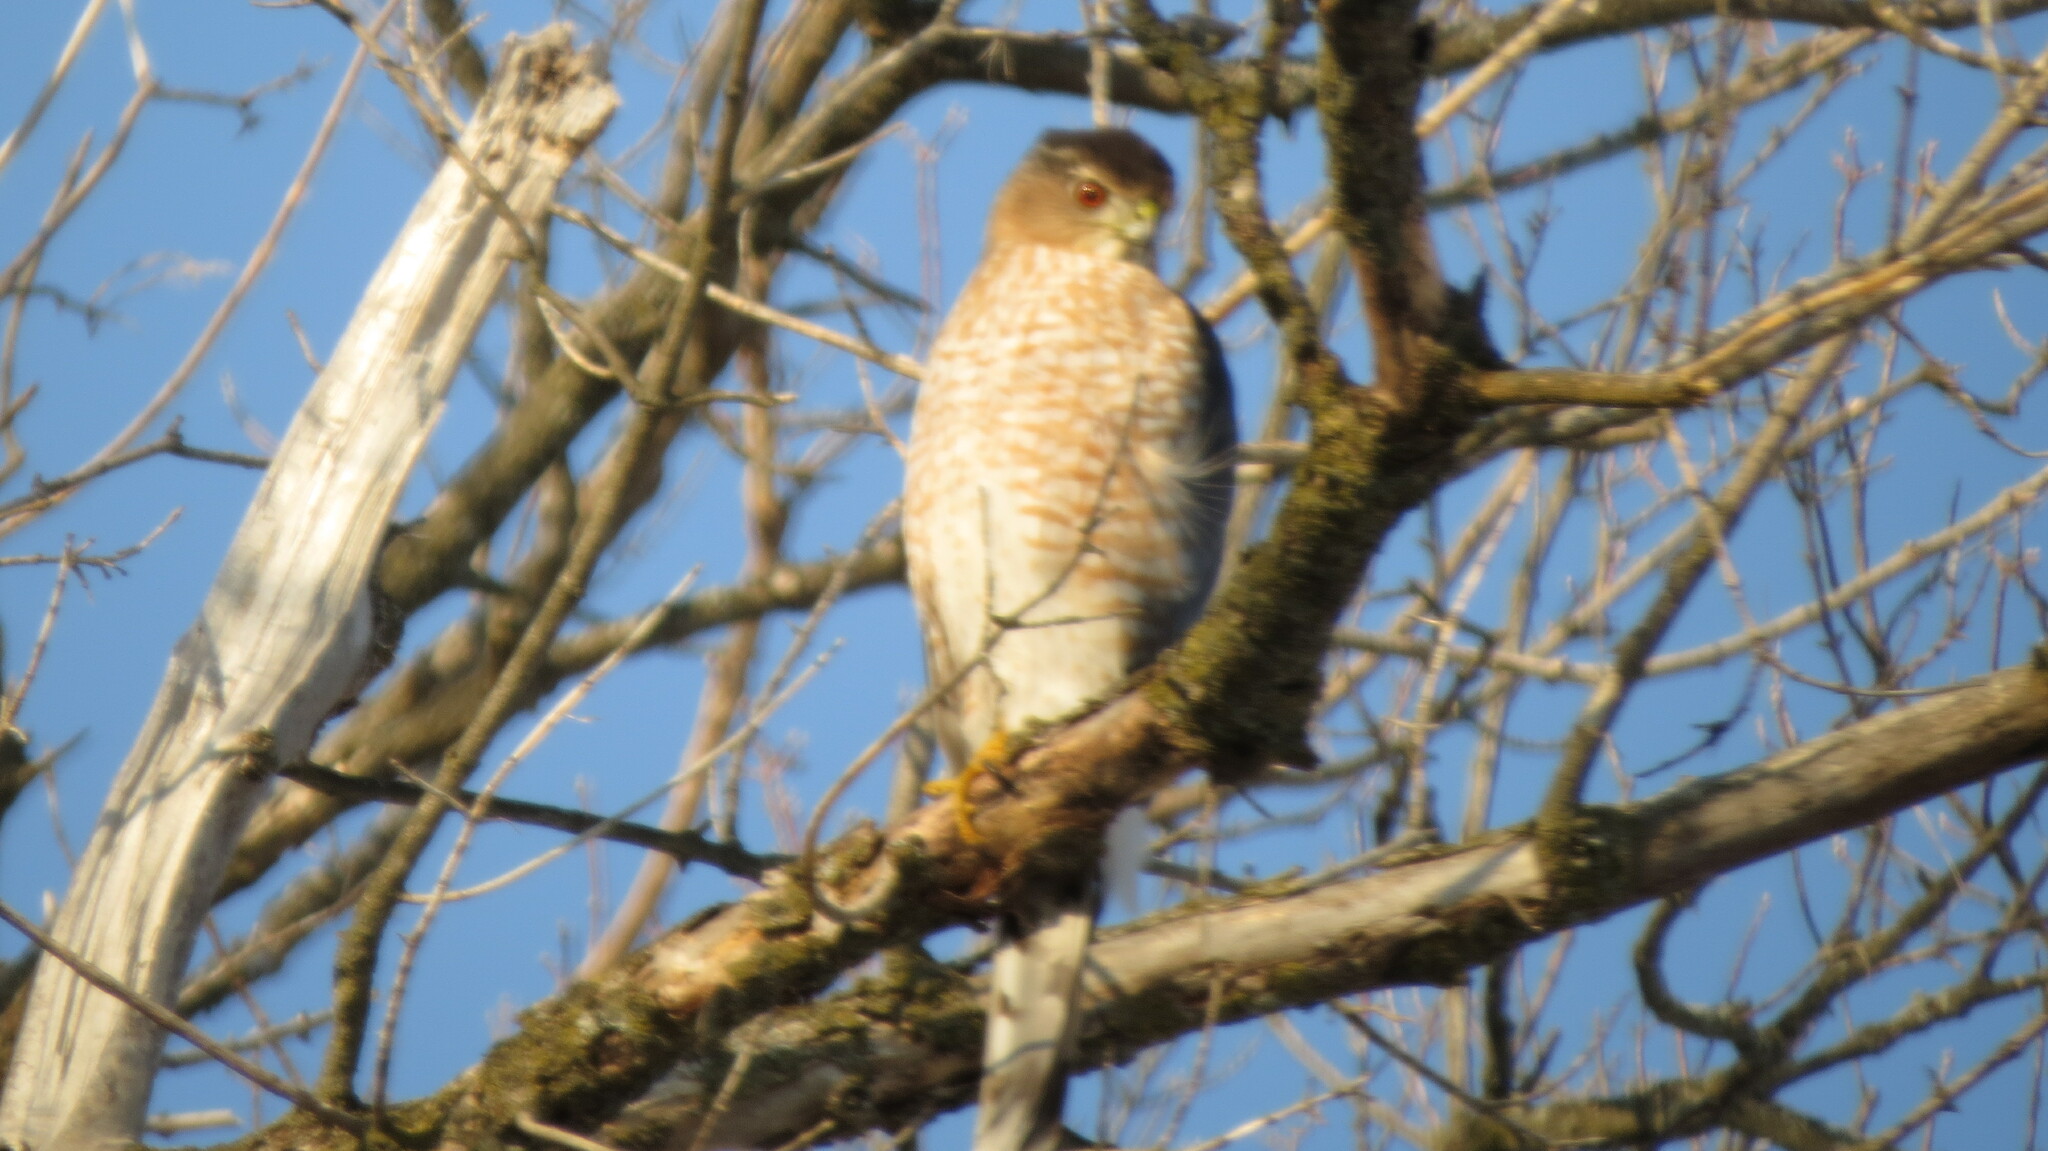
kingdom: Animalia
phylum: Chordata
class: Aves
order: Accipitriformes
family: Accipitridae
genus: Accipiter
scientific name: Accipiter cooperii
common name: Cooper's hawk
